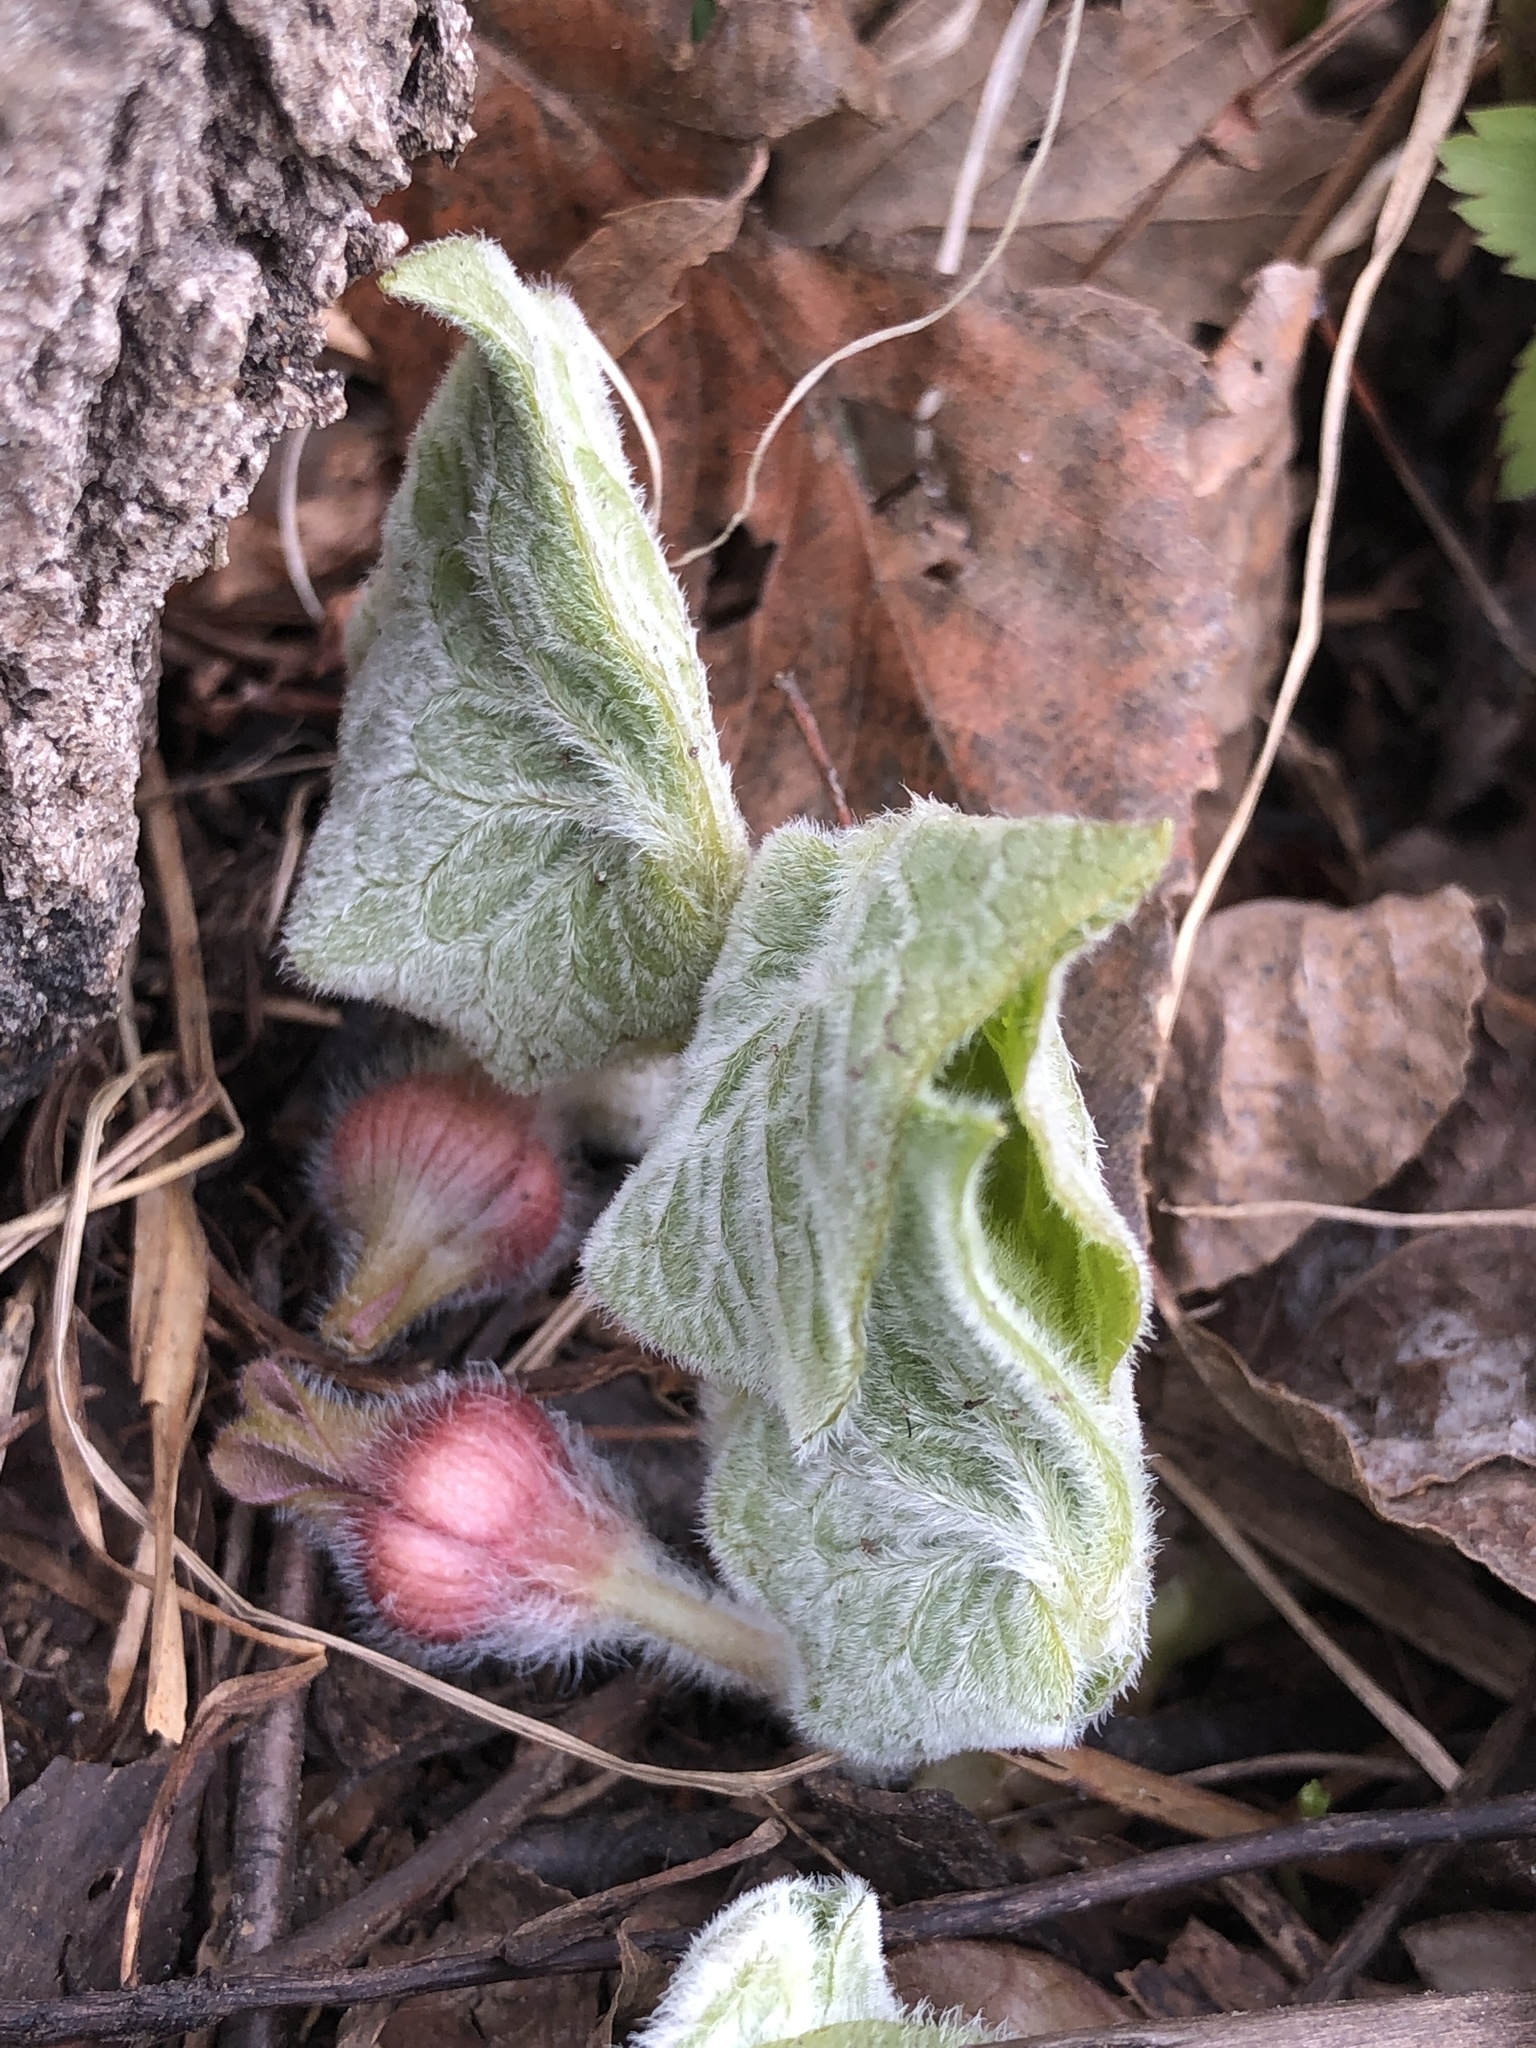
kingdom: Plantae
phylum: Tracheophyta
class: Magnoliopsida
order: Piperales
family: Aristolochiaceae
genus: Asarum
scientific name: Asarum canadense
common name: Wild ginger
